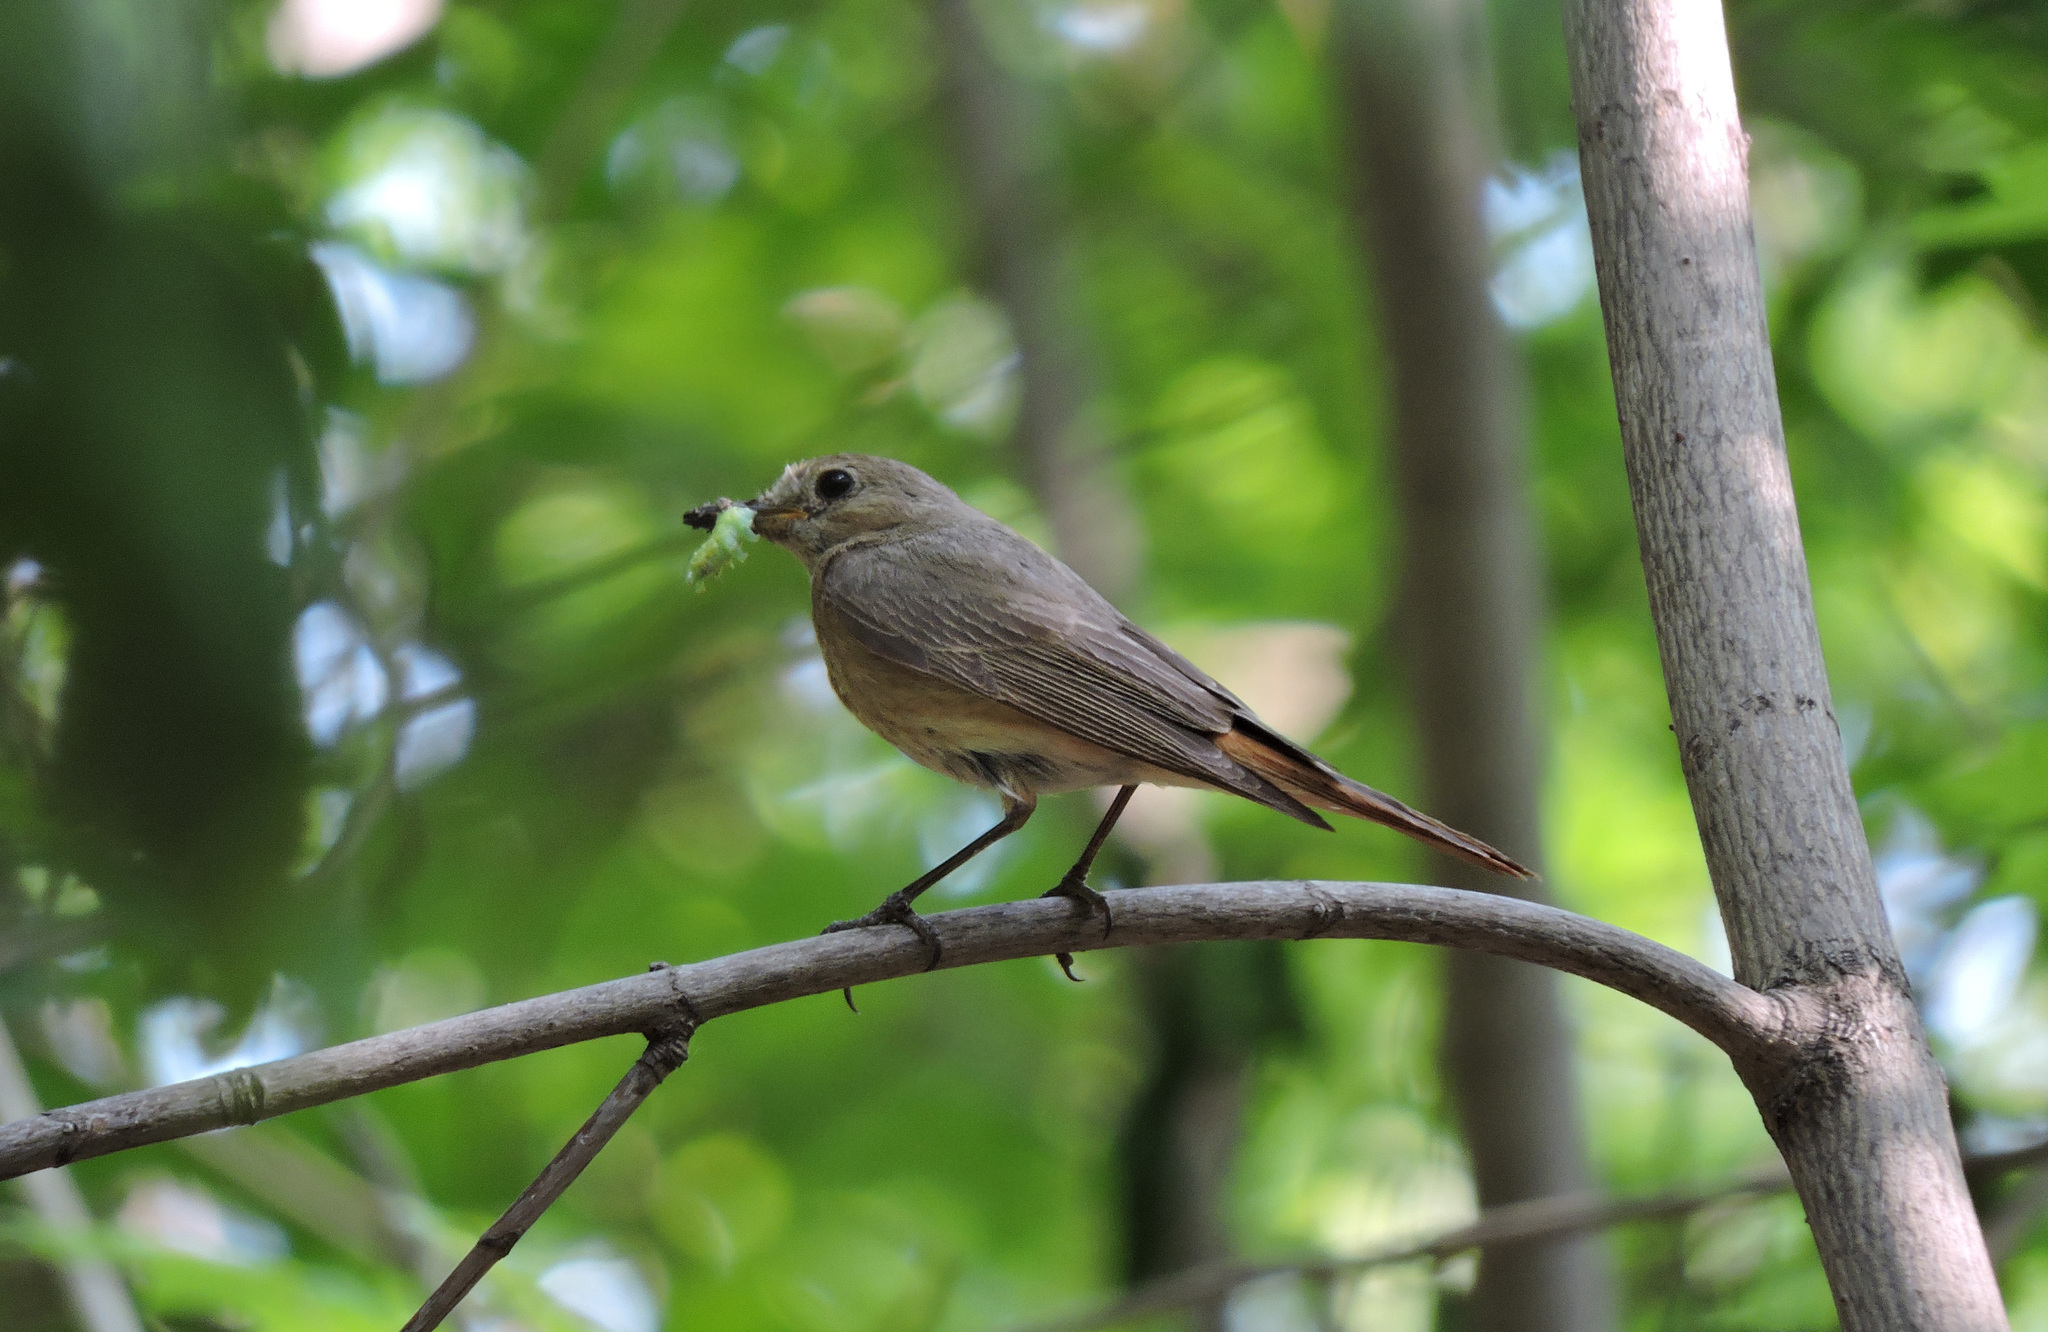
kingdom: Animalia
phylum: Chordata
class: Aves
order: Passeriformes
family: Muscicapidae
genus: Phoenicurus
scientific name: Phoenicurus phoenicurus
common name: Common redstart
